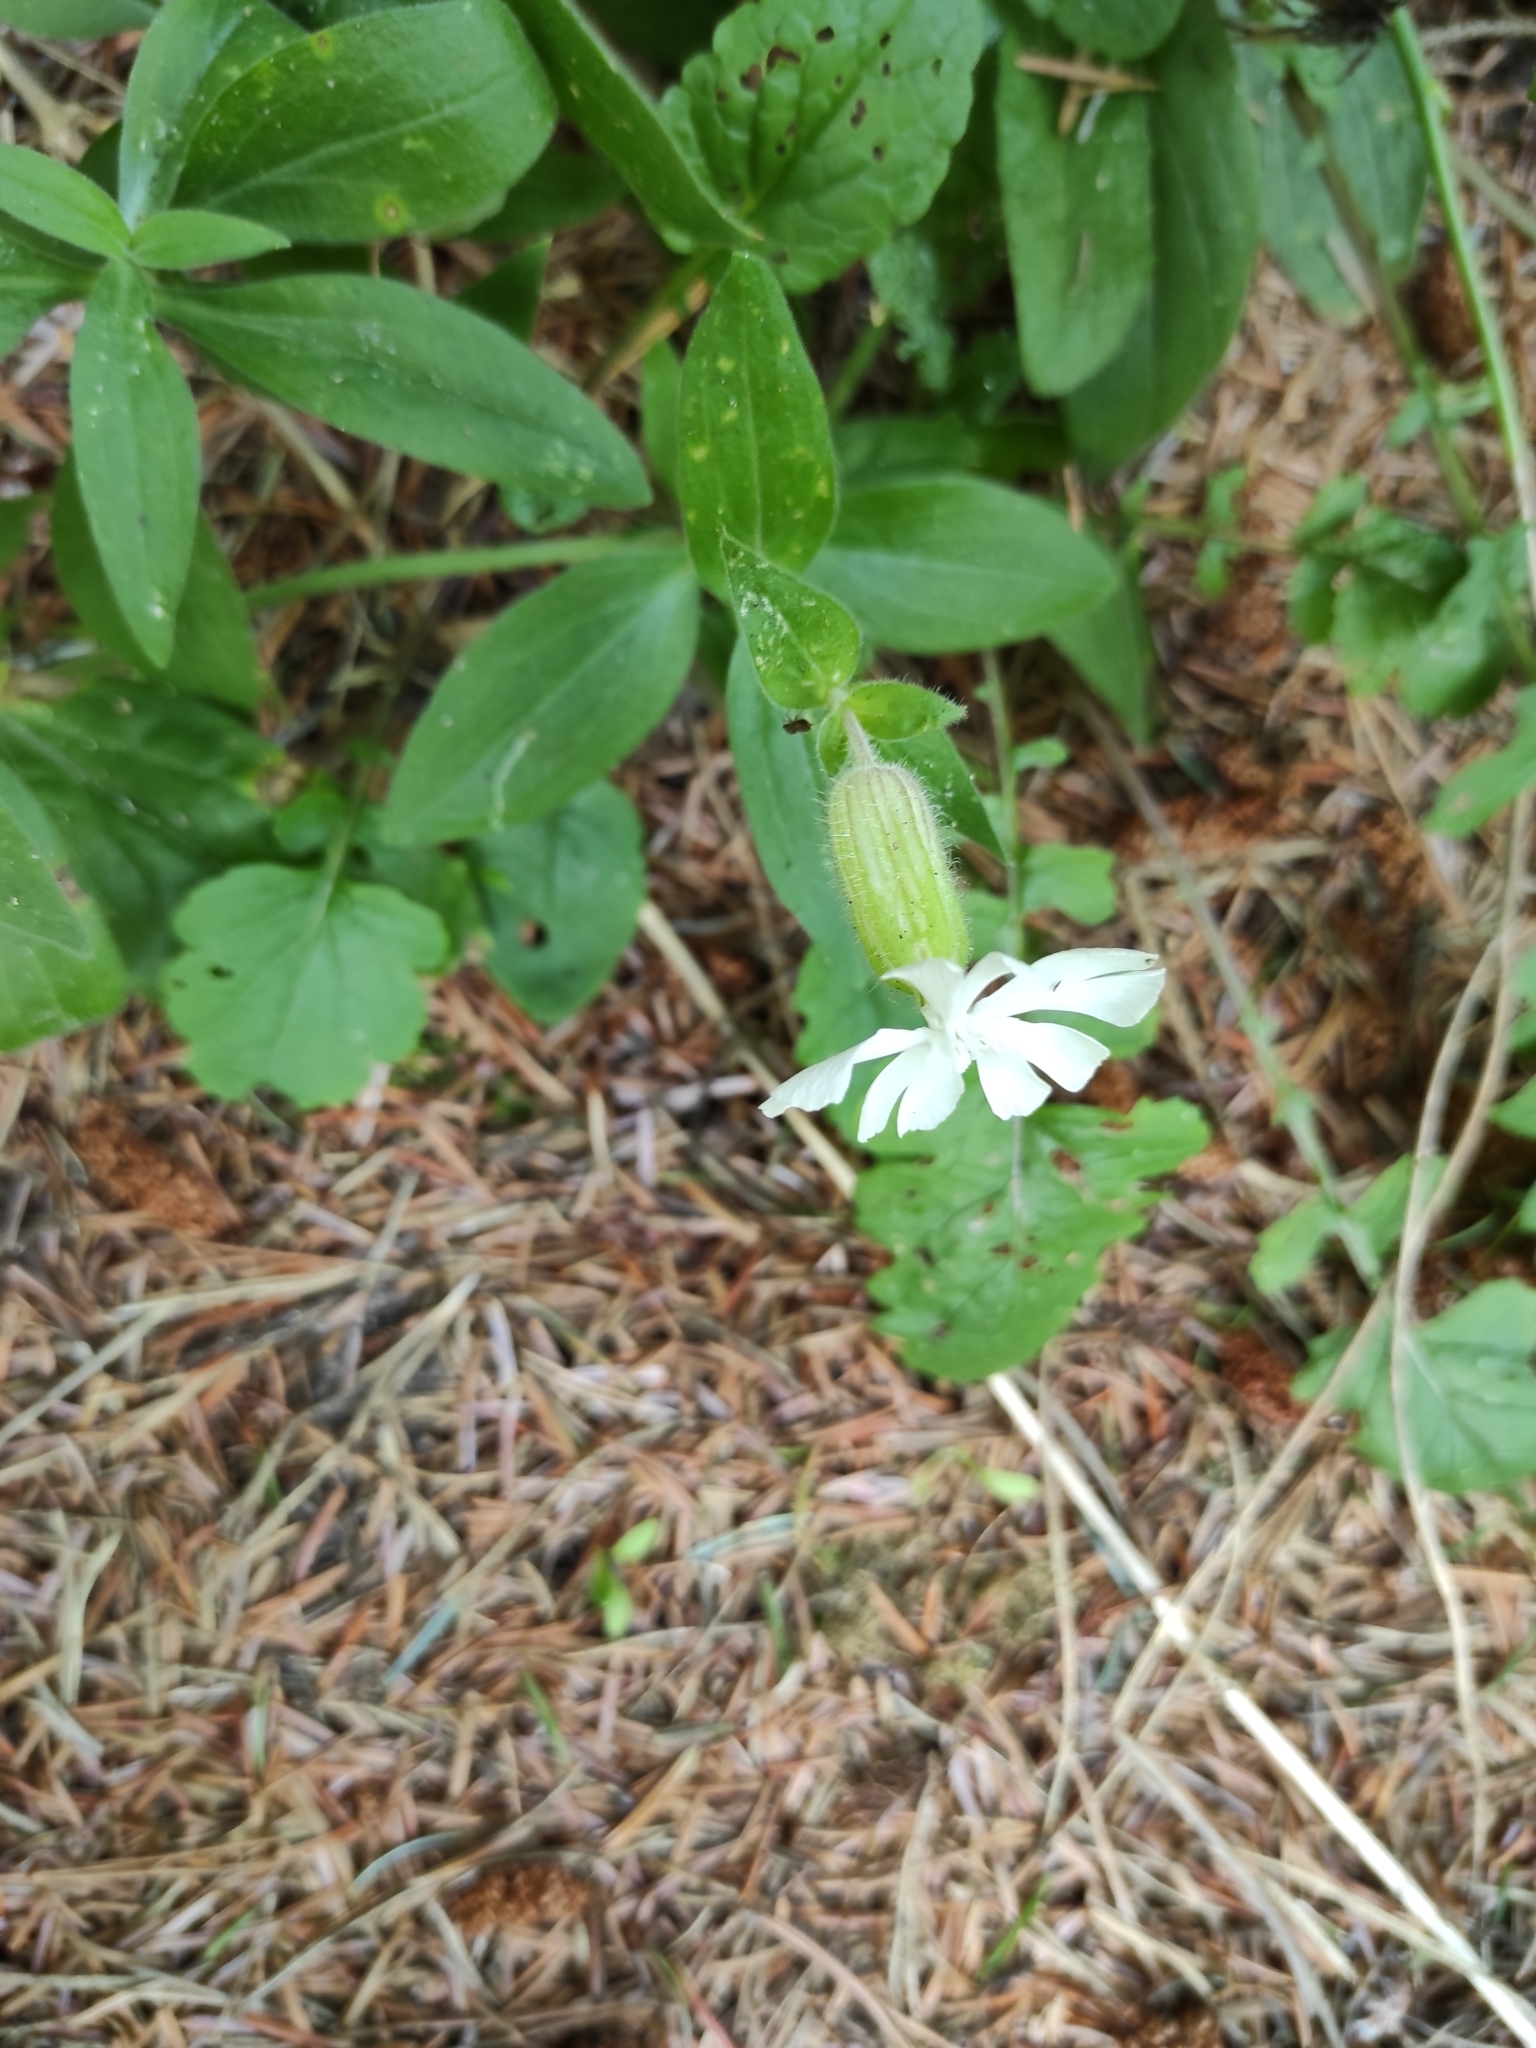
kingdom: Plantae
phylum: Tracheophyta
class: Magnoliopsida
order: Caryophyllales
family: Caryophyllaceae
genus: Silene
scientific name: Silene latifolia
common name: White campion
